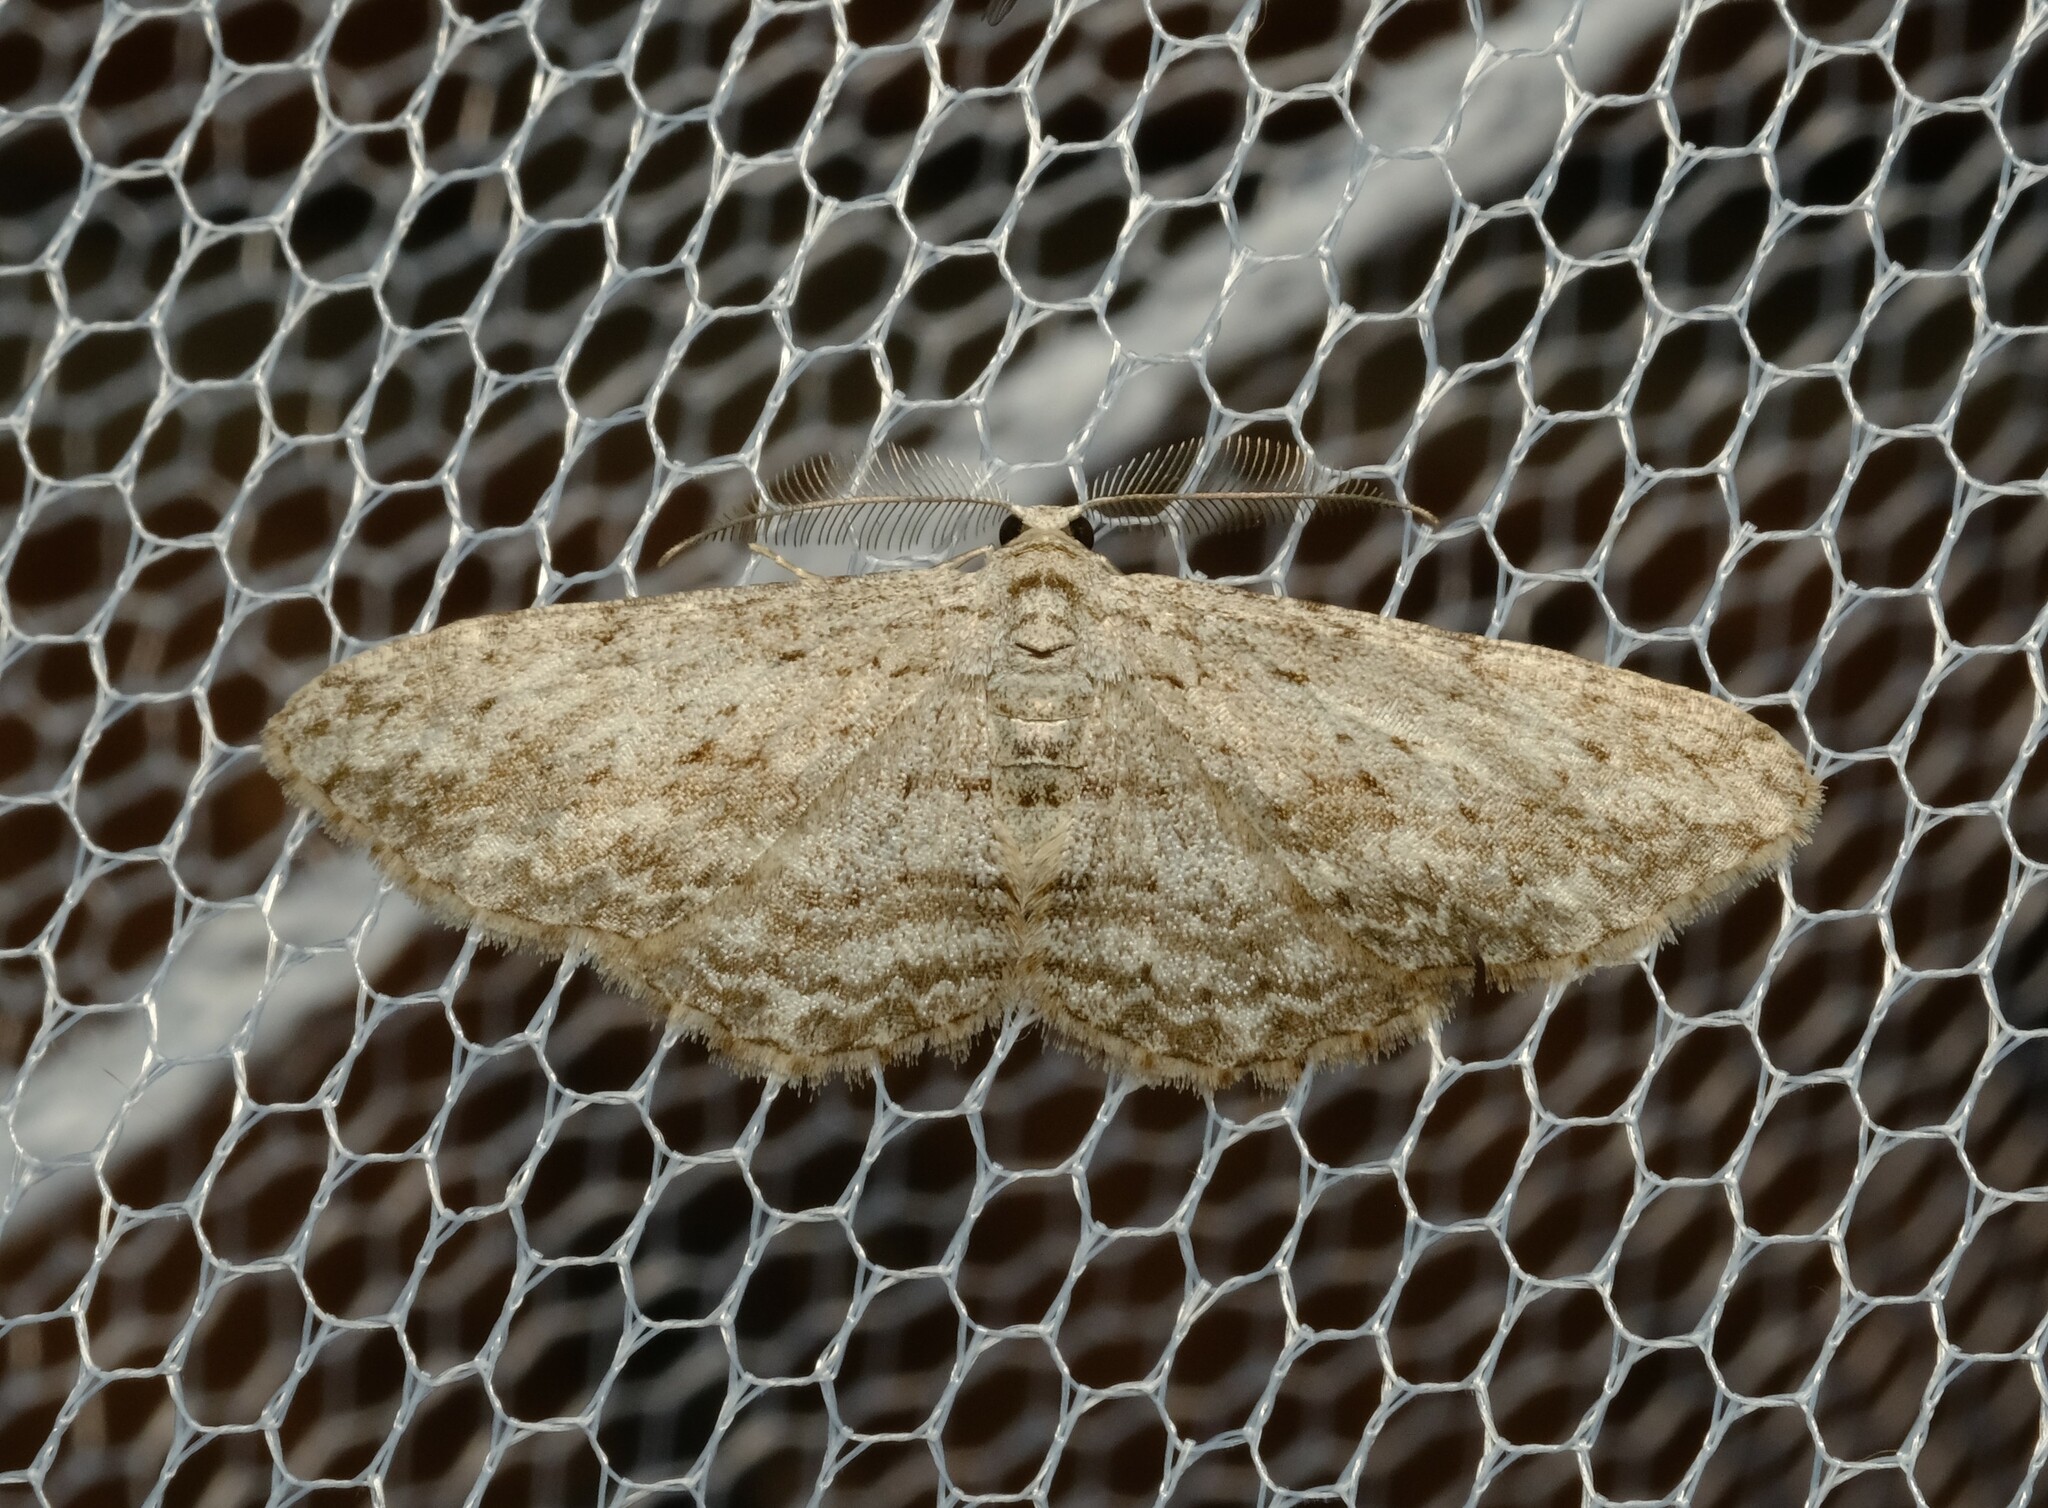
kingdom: Animalia
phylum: Arthropoda
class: Insecta
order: Lepidoptera
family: Geometridae
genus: Phelotis
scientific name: Phelotis cognata
